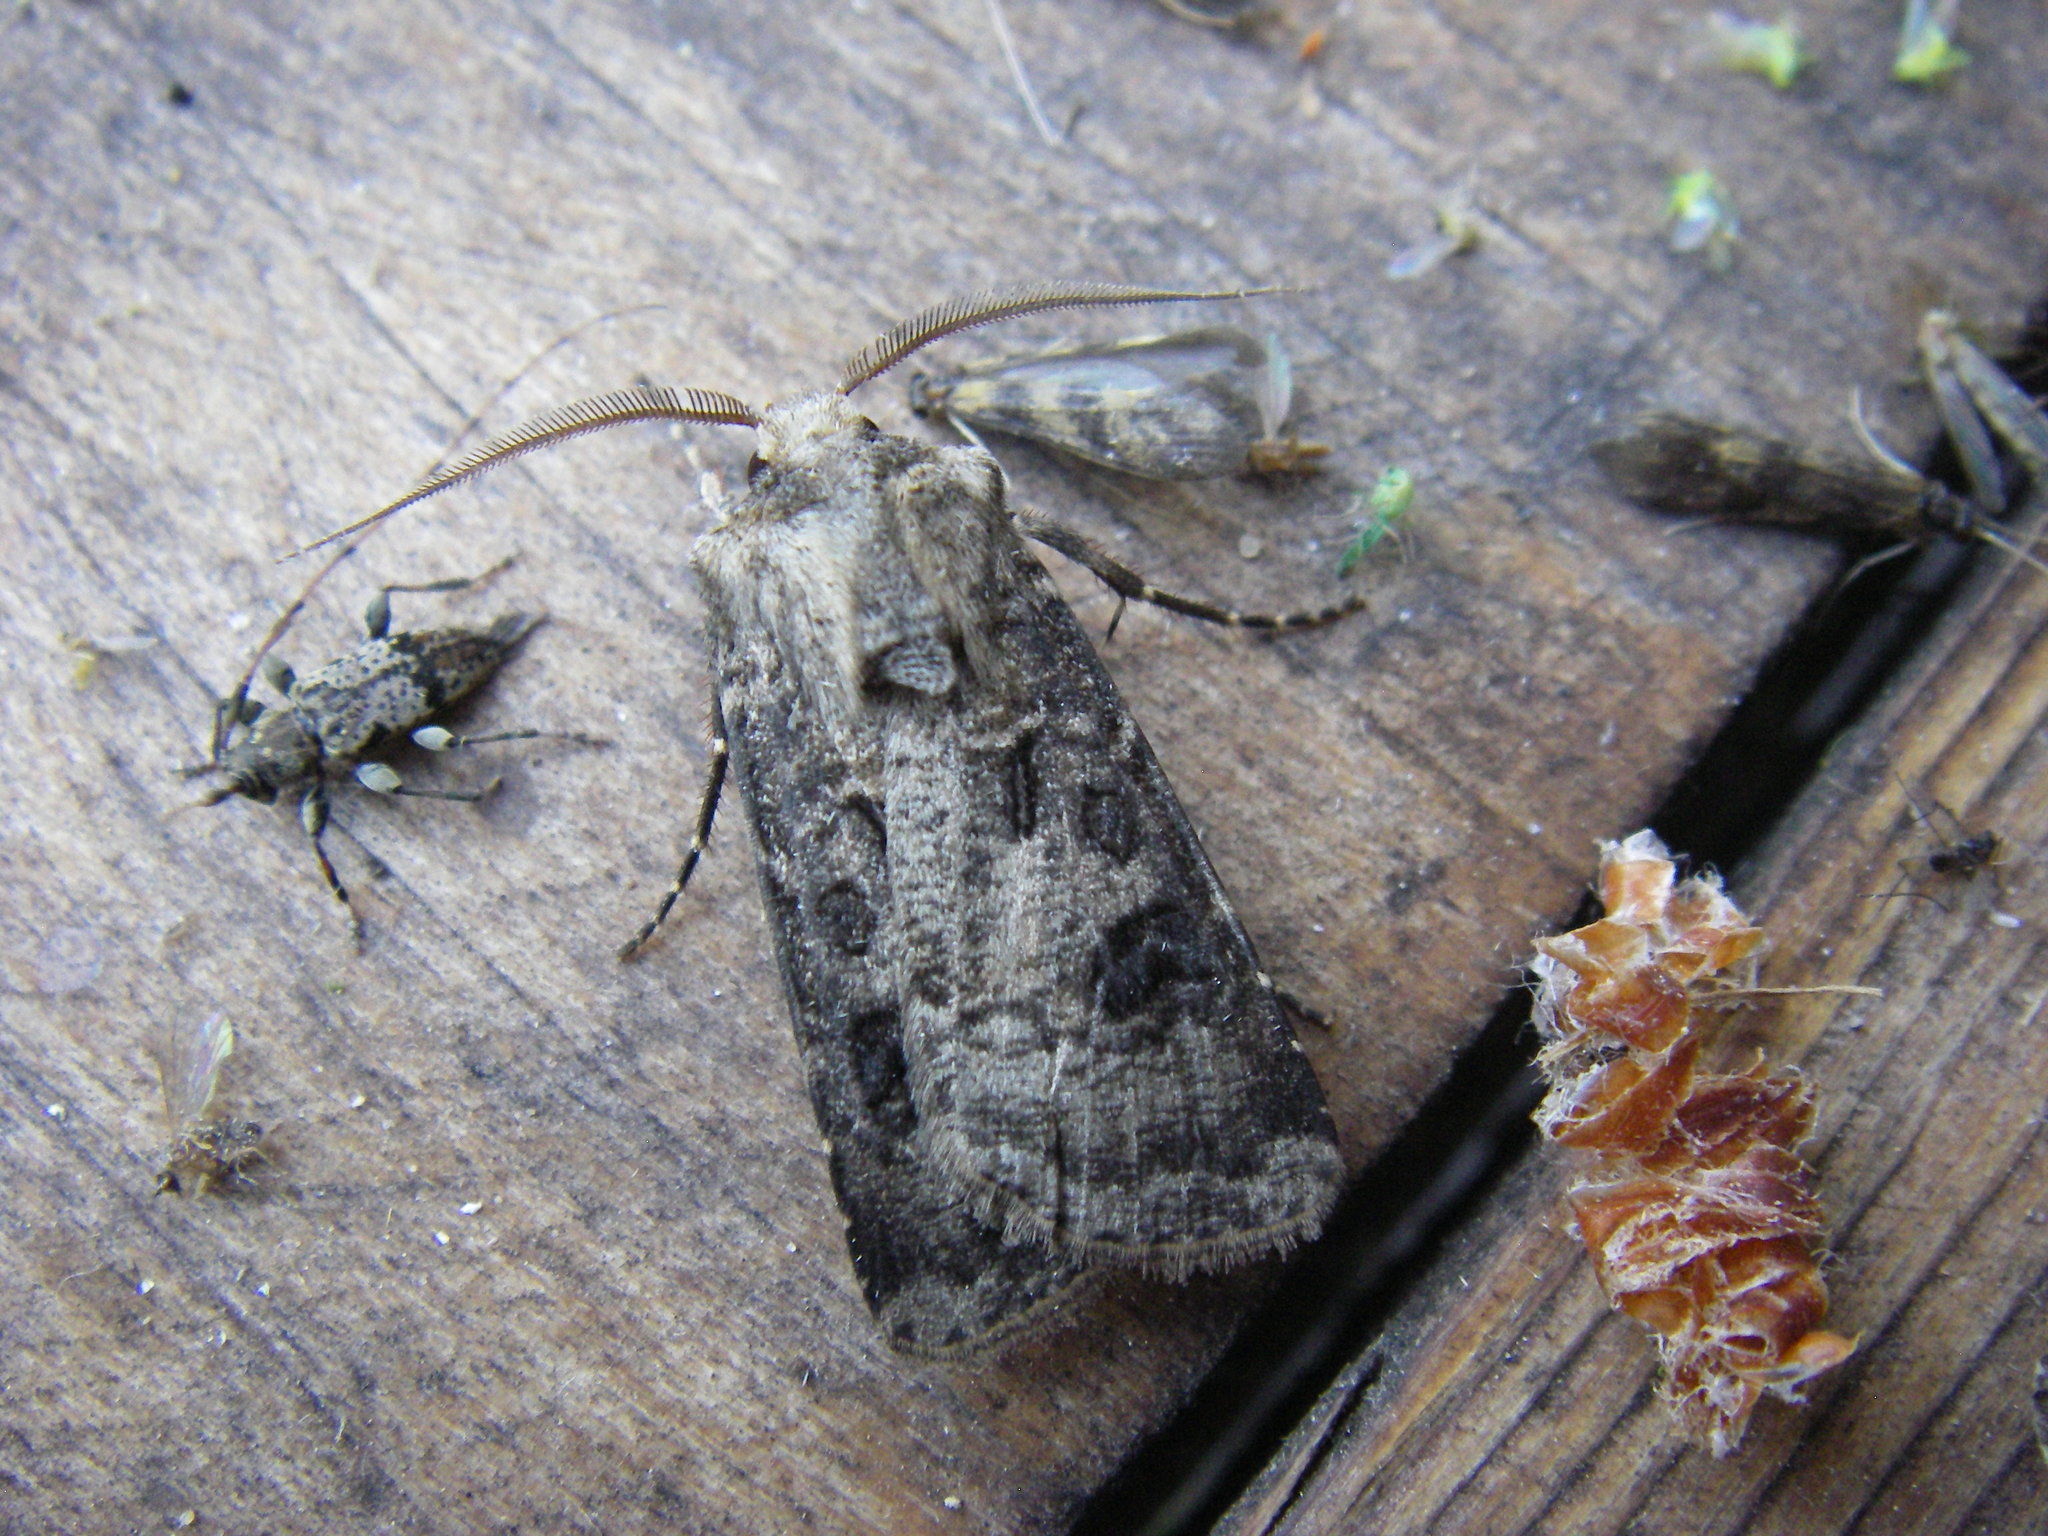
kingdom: Animalia
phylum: Arthropoda
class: Insecta
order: Lepidoptera
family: Noctuidae
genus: Agrotis
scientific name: Agrotis clavis
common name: Heart and club
